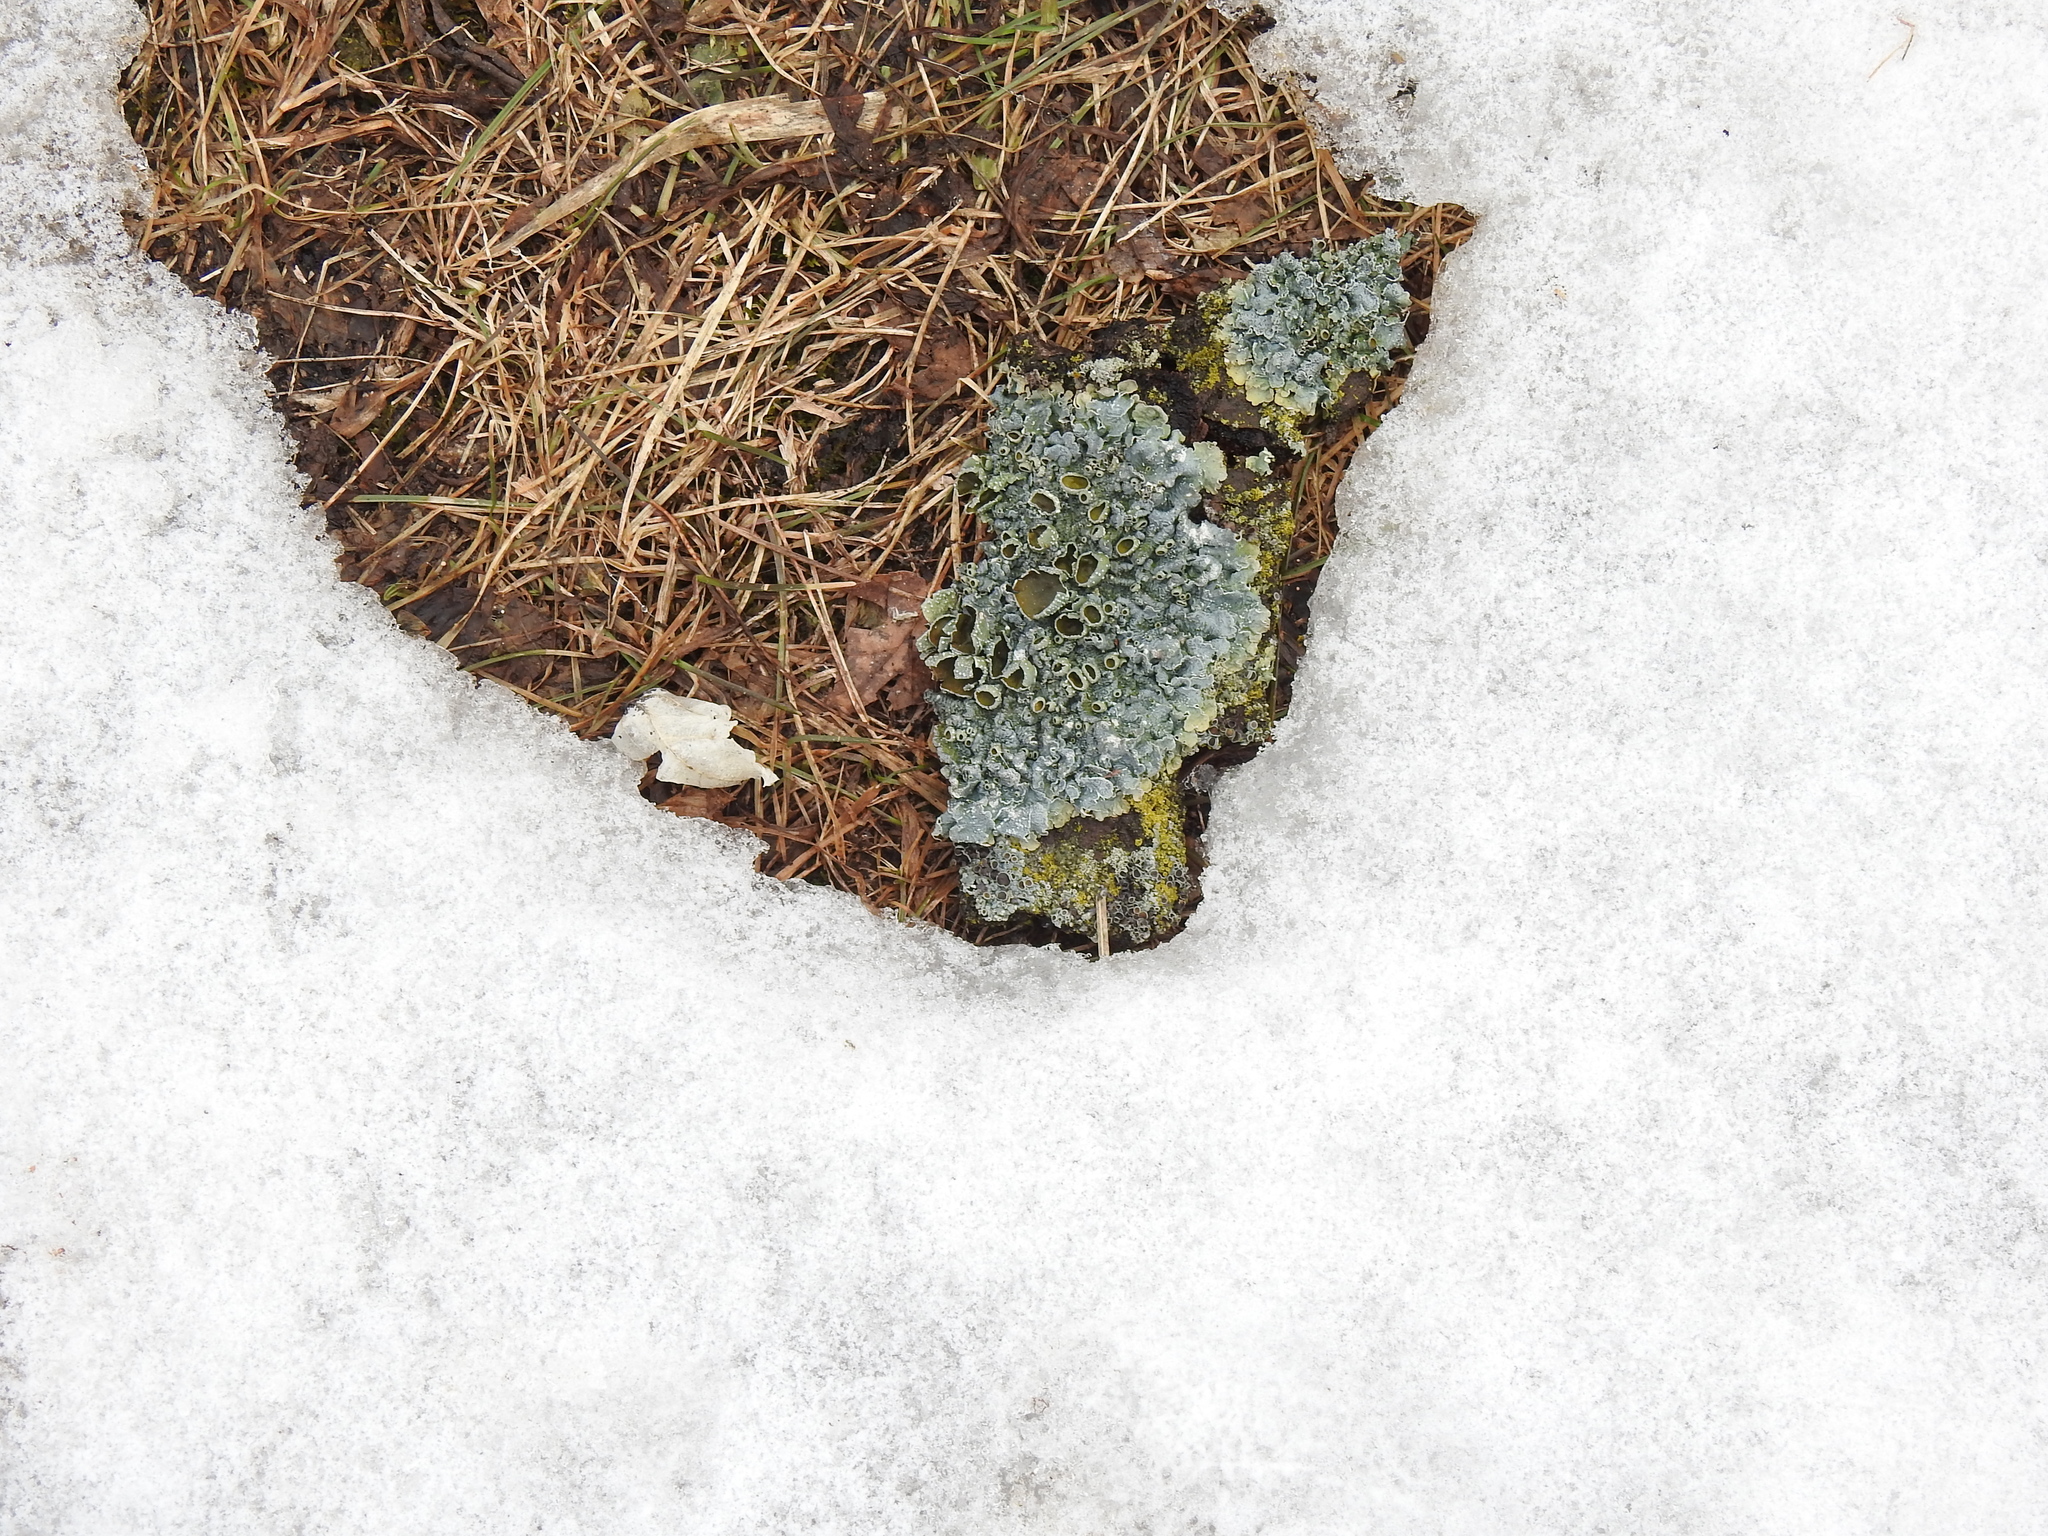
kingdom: Fungi
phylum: Ascomycota
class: Lecanoromycetes
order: Lecanorales
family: Parmeliaceae
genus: Punctelia
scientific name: Punctelia rudecta
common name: Rough speckled shield lichen
